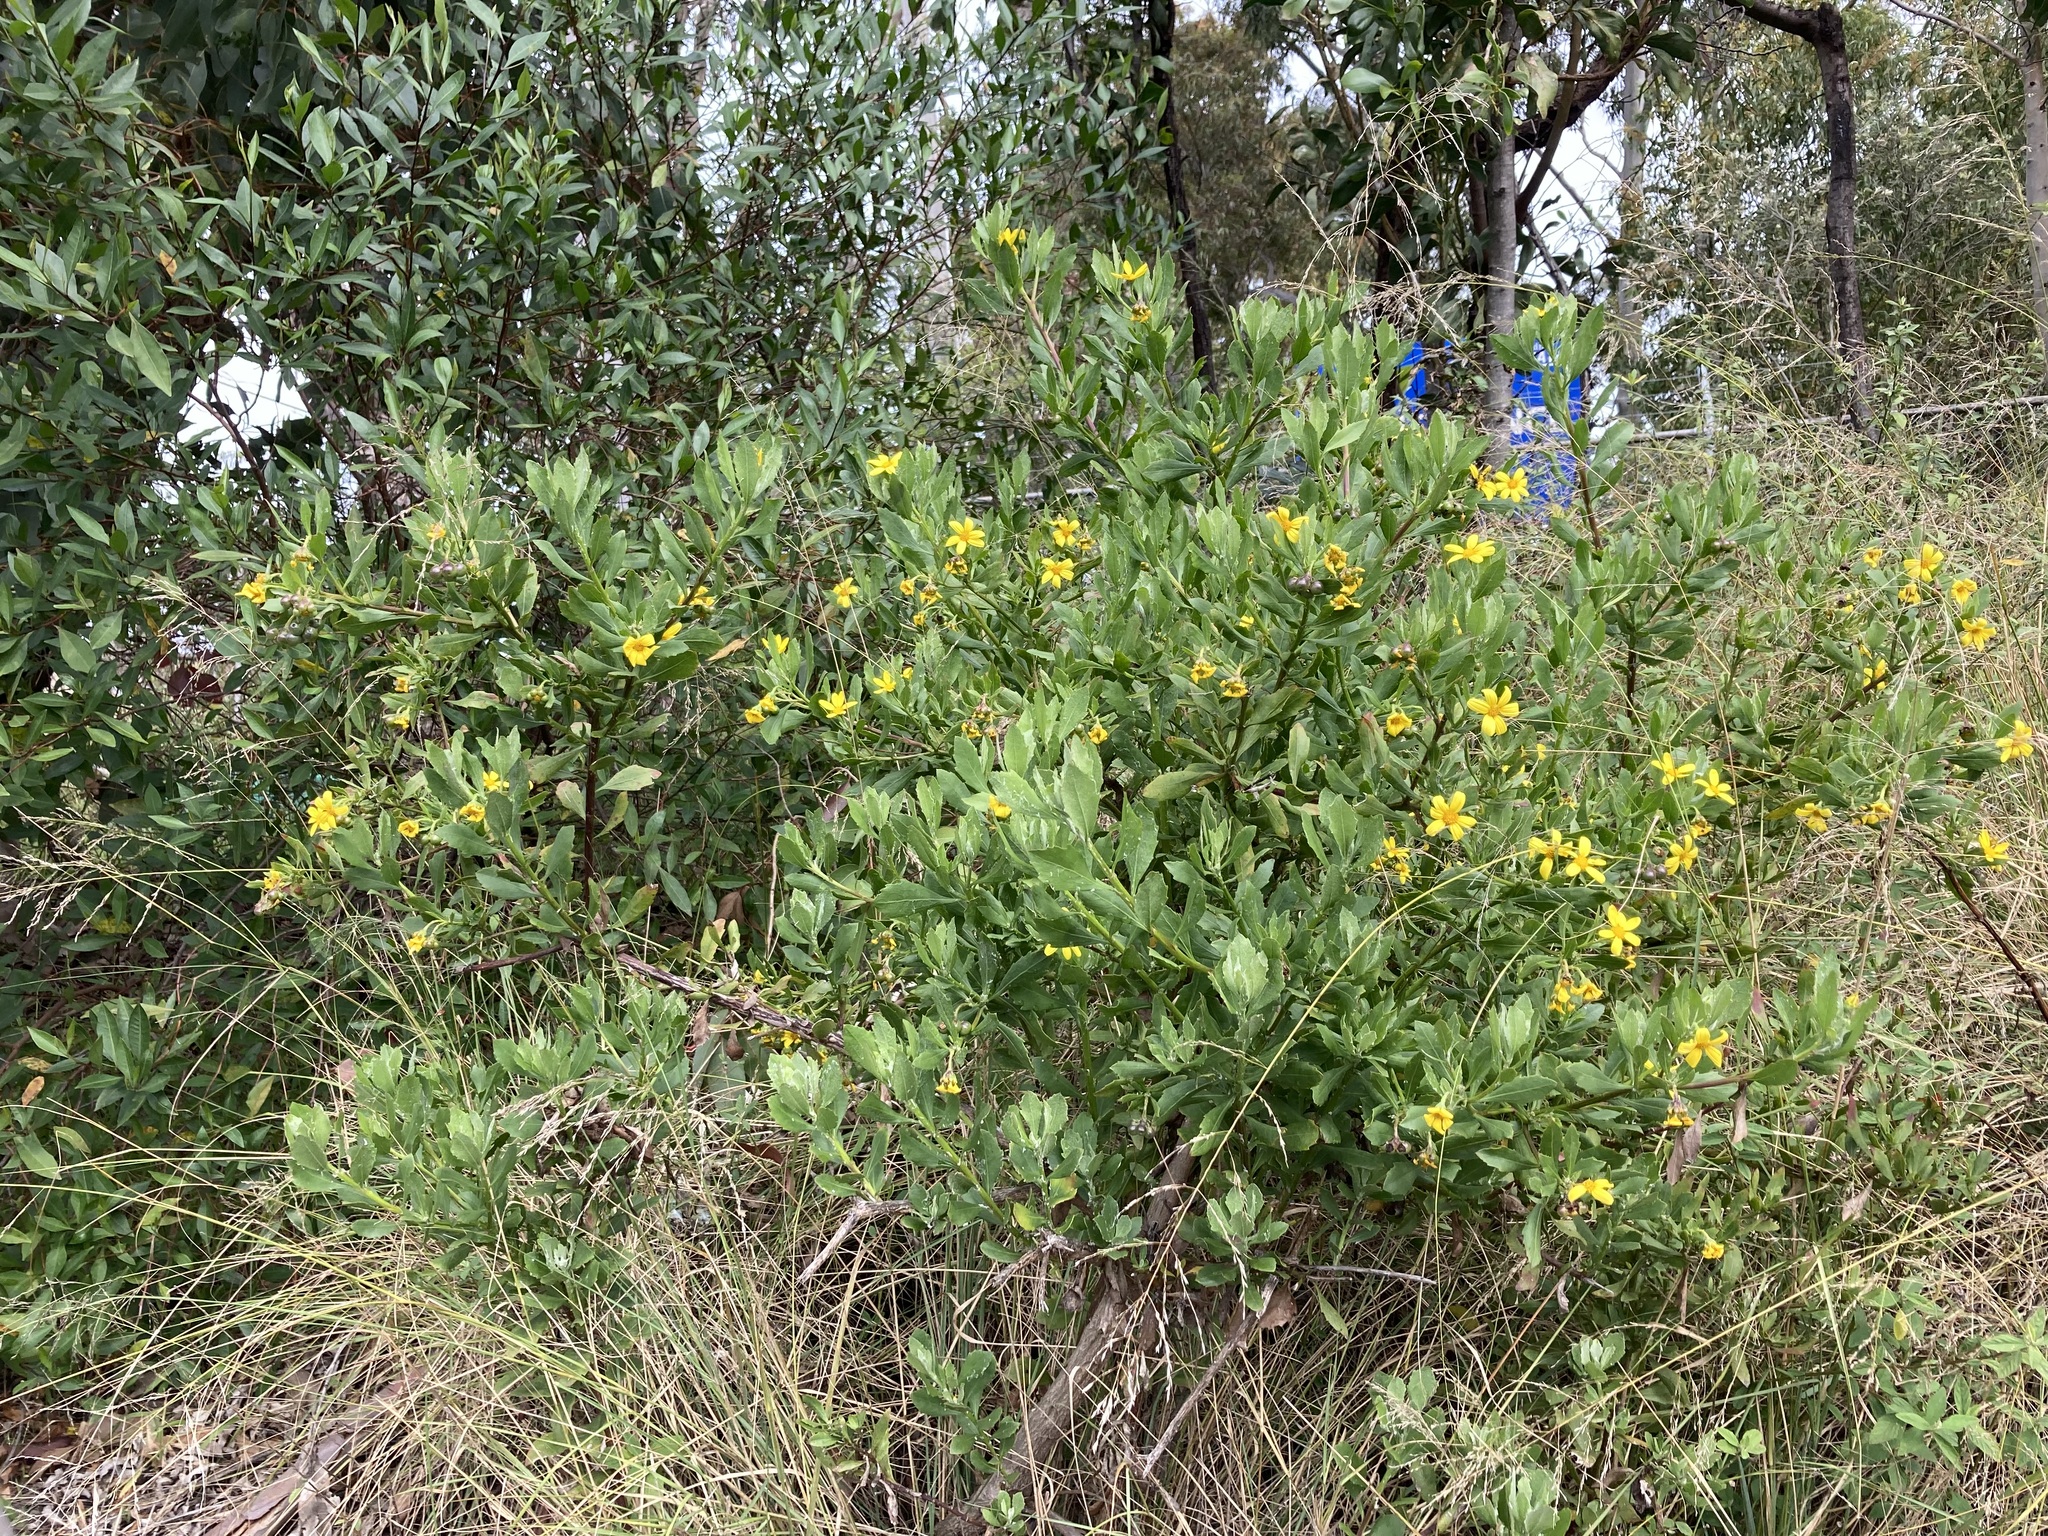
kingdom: Plantae
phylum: Tracheophyta
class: Magnoliopsida
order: Asterales
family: Asteraceae
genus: Osteospermum
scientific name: Osteospermum moniliferum
